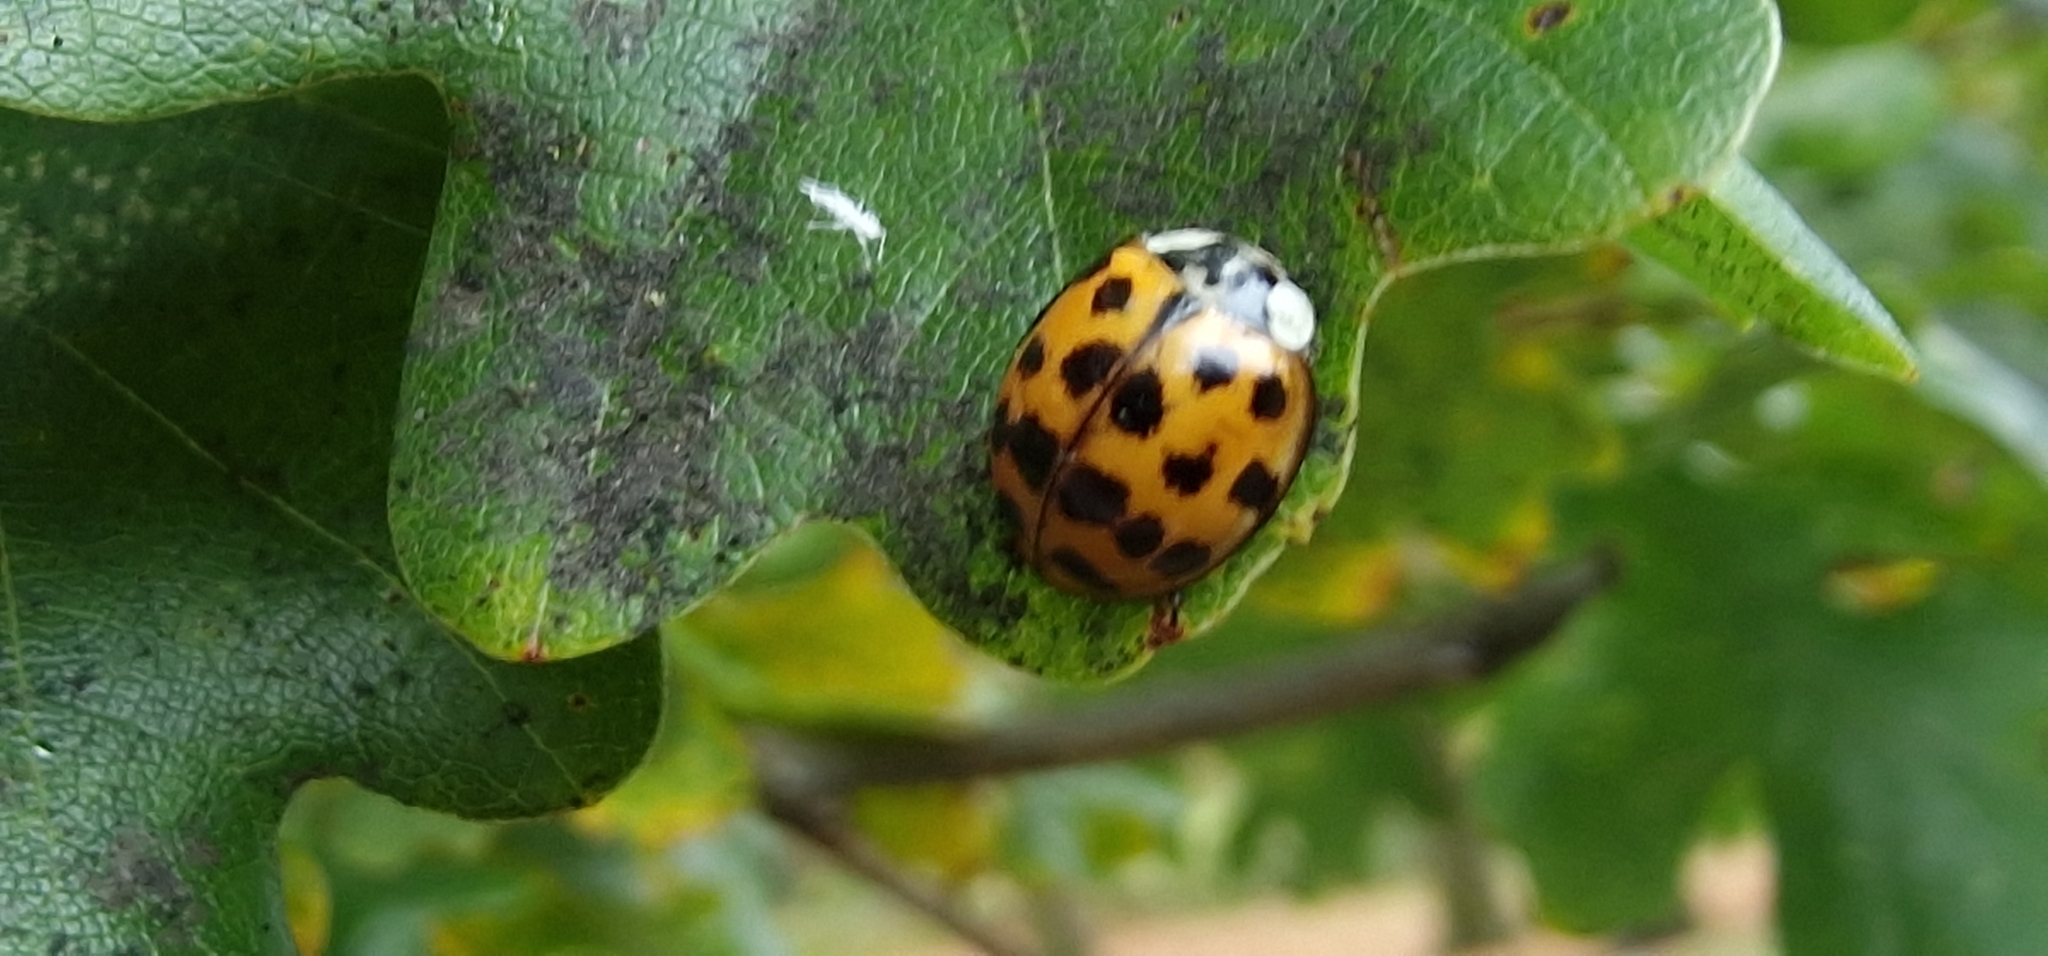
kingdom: Animalia
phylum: Arthropoda
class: Insecta
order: Coleoptera
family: Coccinellidae
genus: Harmonia
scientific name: Harmonia axyridis
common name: Harlequin ladybird
